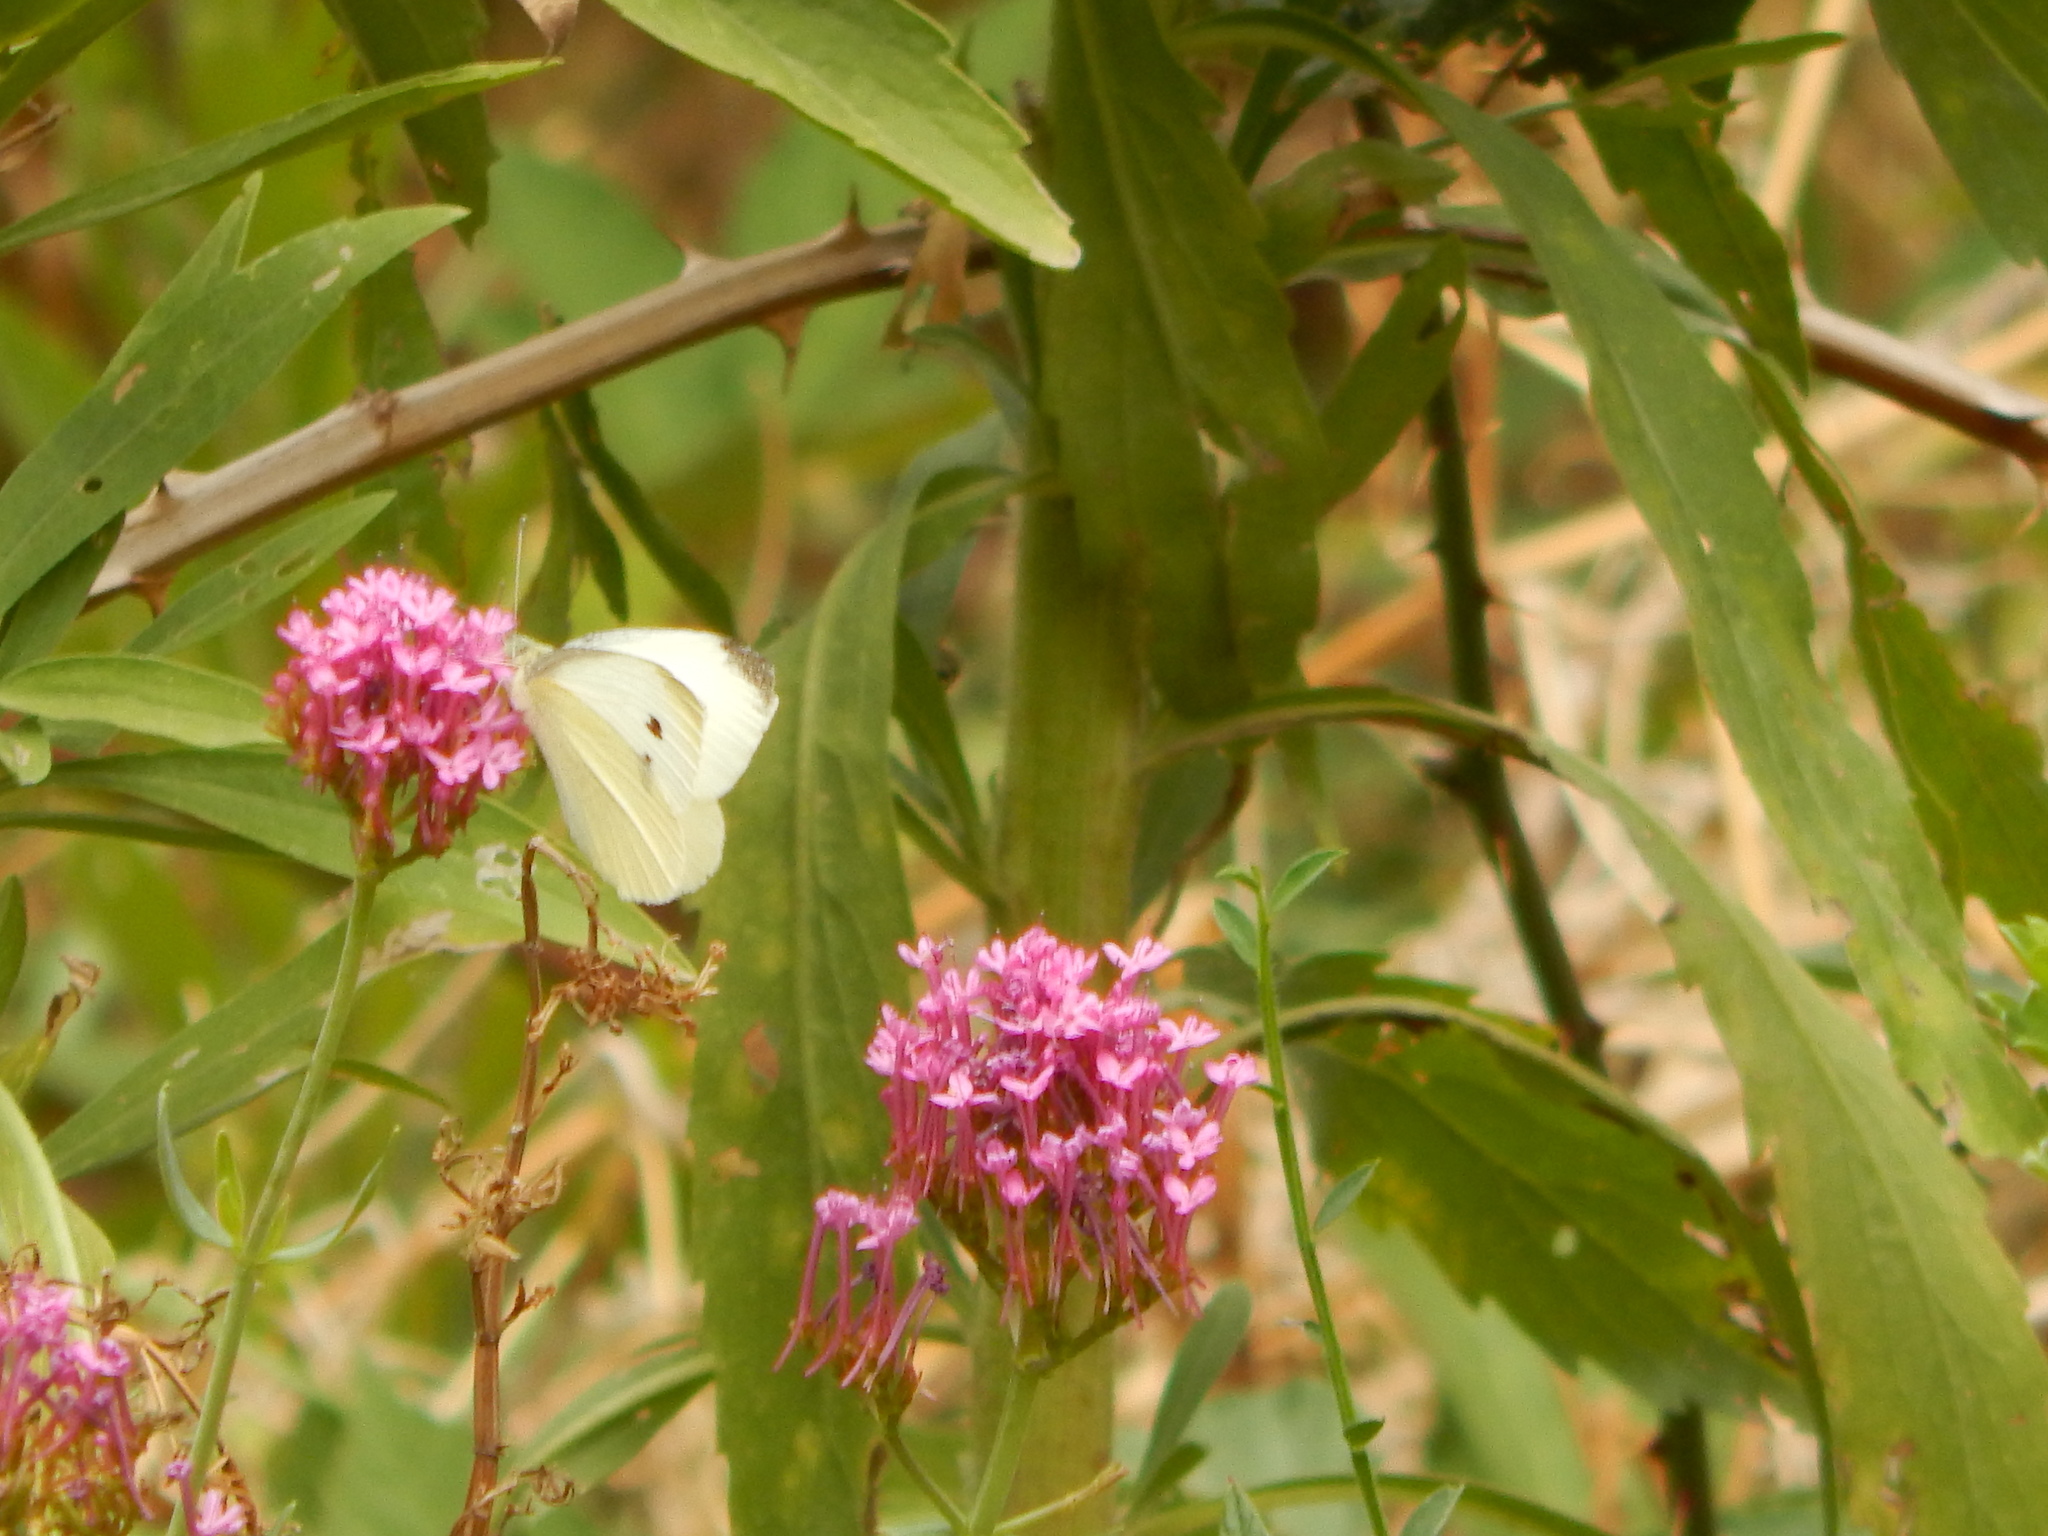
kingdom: Animalia
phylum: Arthropoda
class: Insecta
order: Lepidoptera
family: Pieridae
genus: Pieris
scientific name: Pieris rapae
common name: Small white
